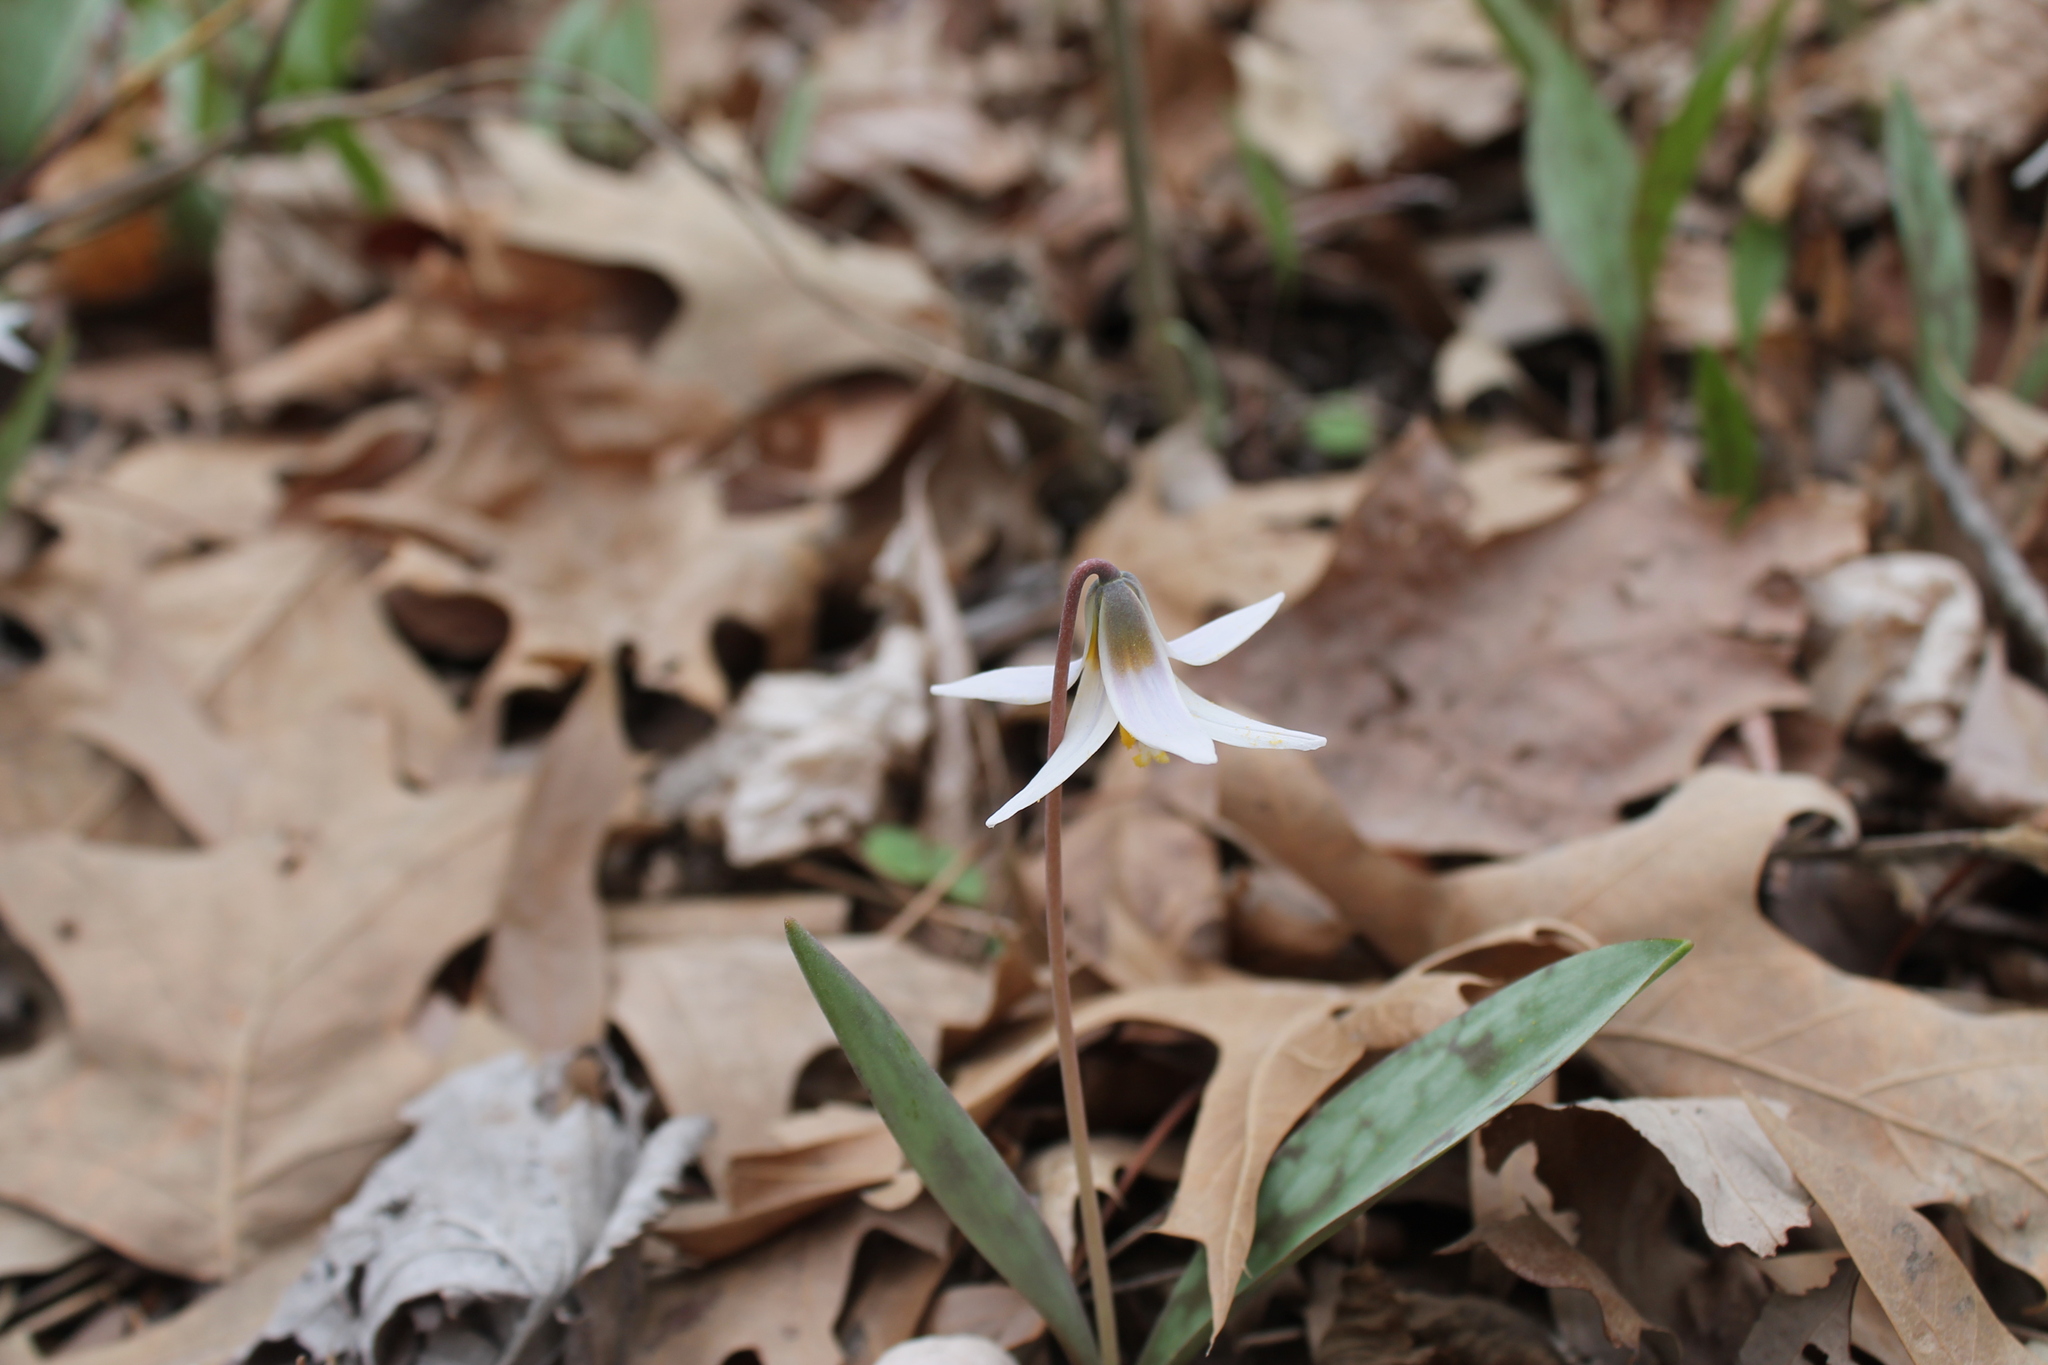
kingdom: Plantae
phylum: Tracheophyta
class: Liliopsida
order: Liliales
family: Liliaceae
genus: Erythronium
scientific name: Erythronium albidum
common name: White trout-lily
